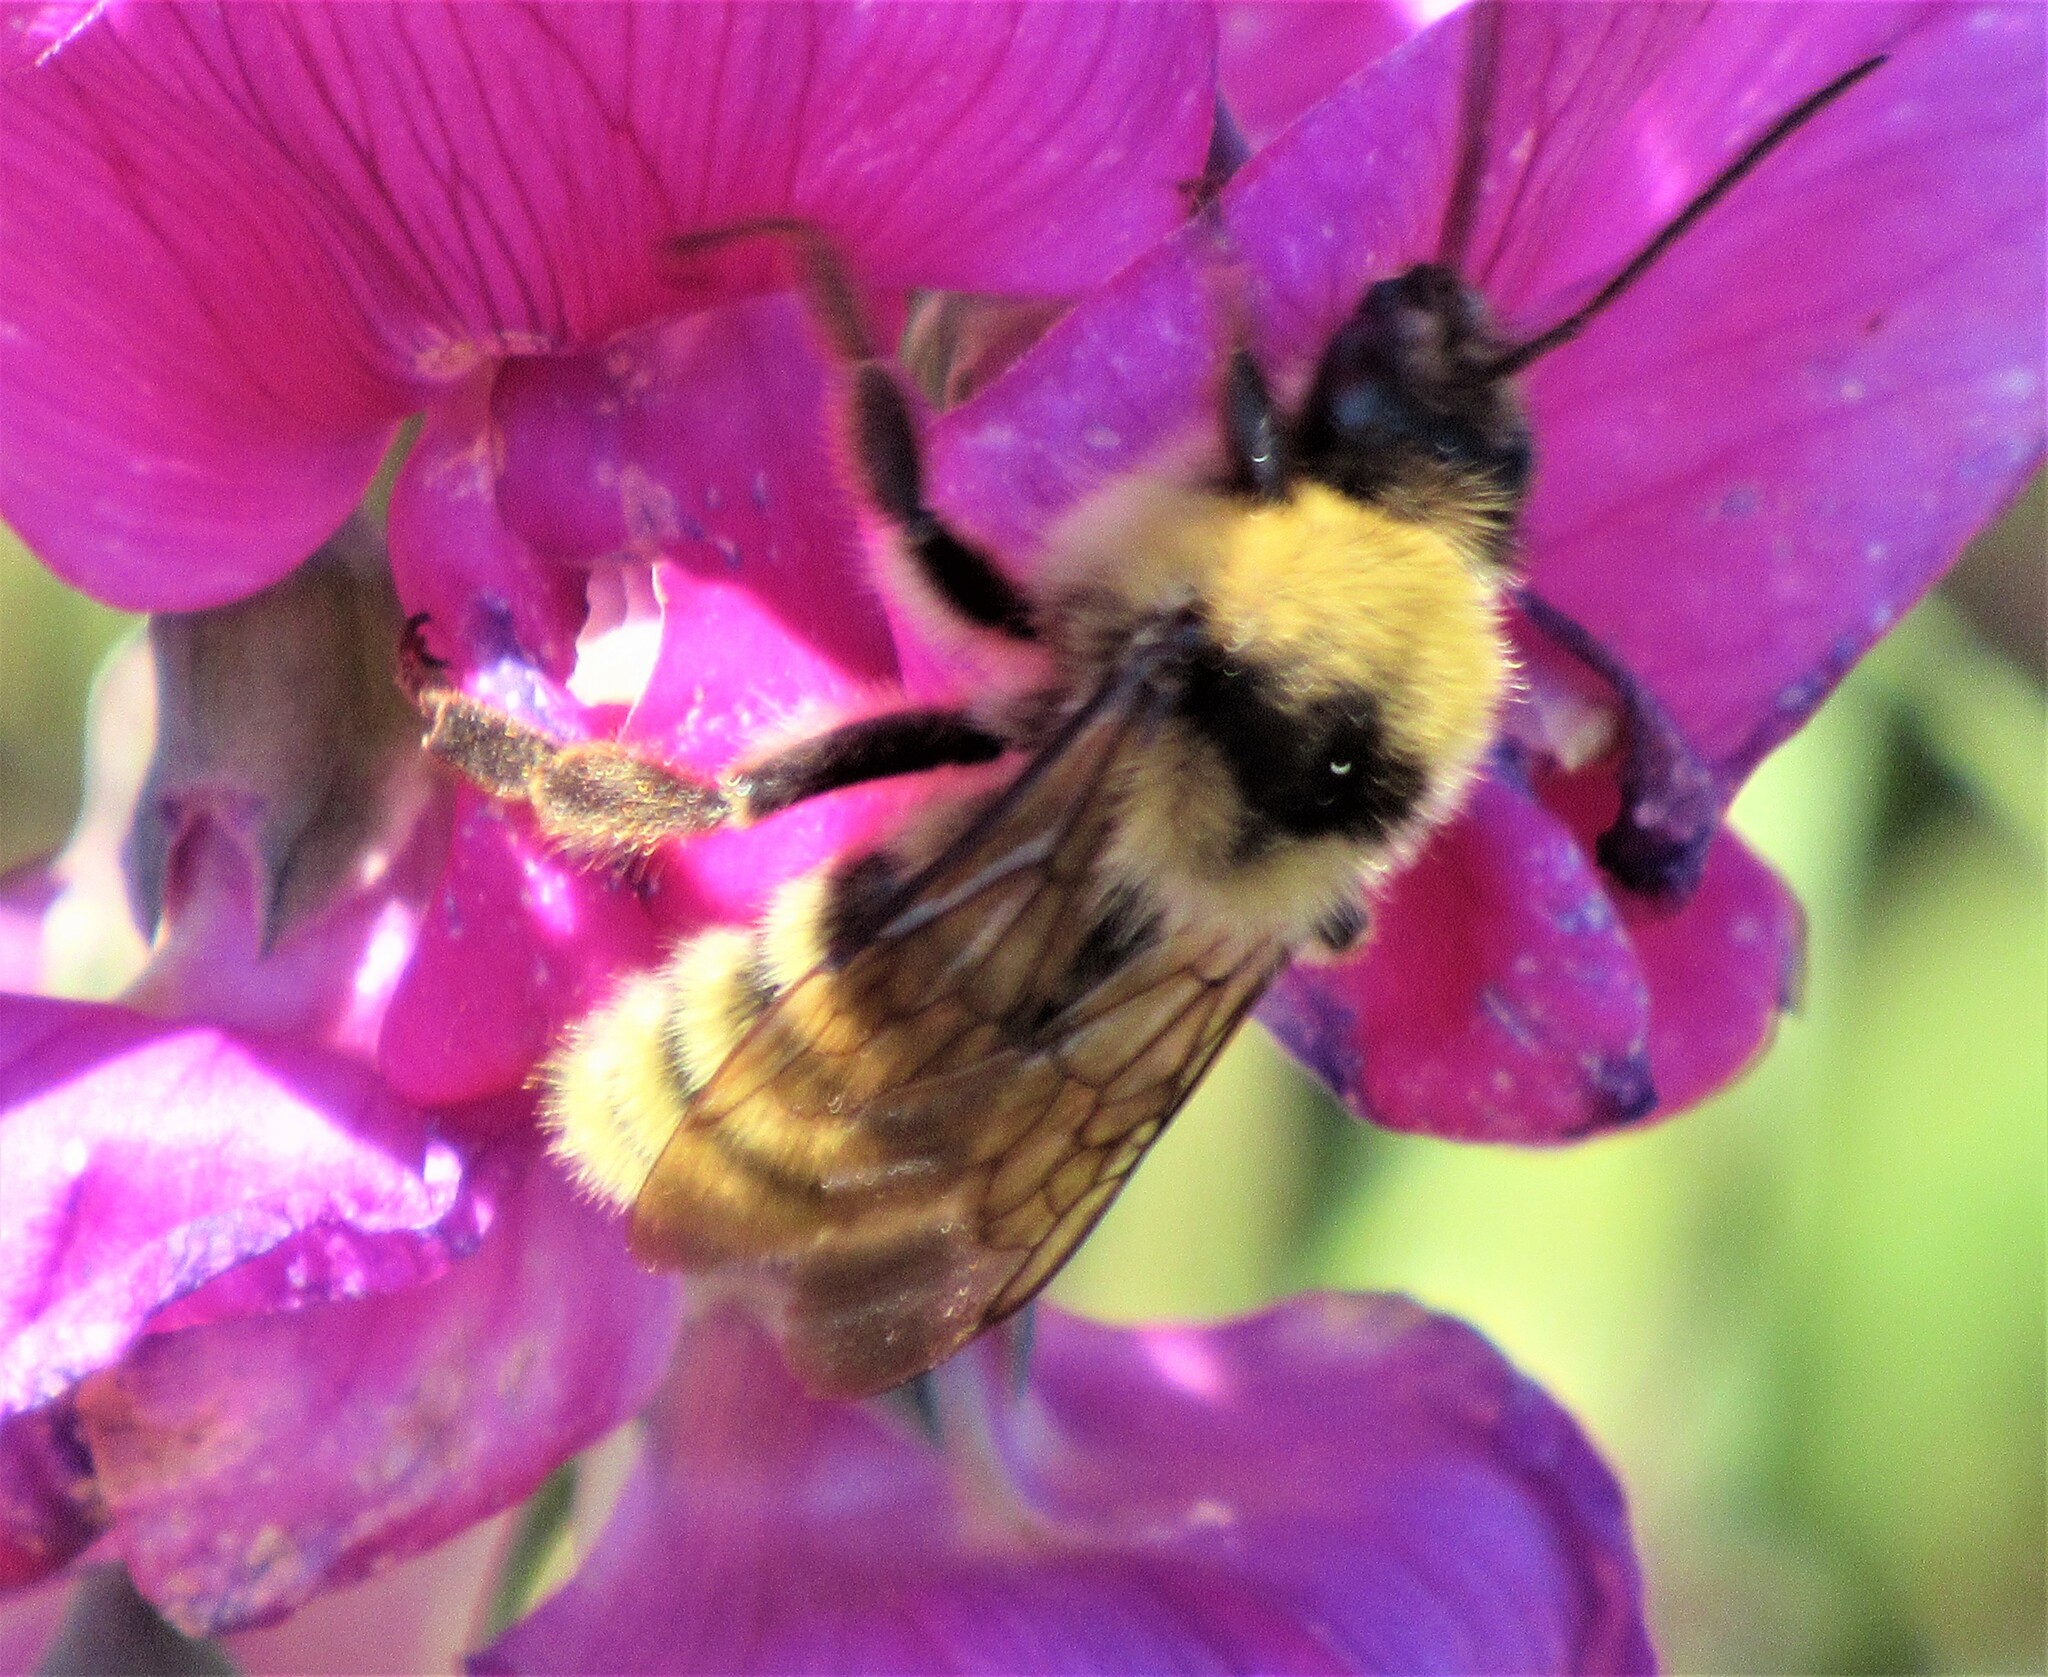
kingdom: Animalia
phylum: Arthropoda
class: Insecta
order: Hymenoptera
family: Apidae
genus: Bombus
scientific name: Bombus californicus
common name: California bumble bee
